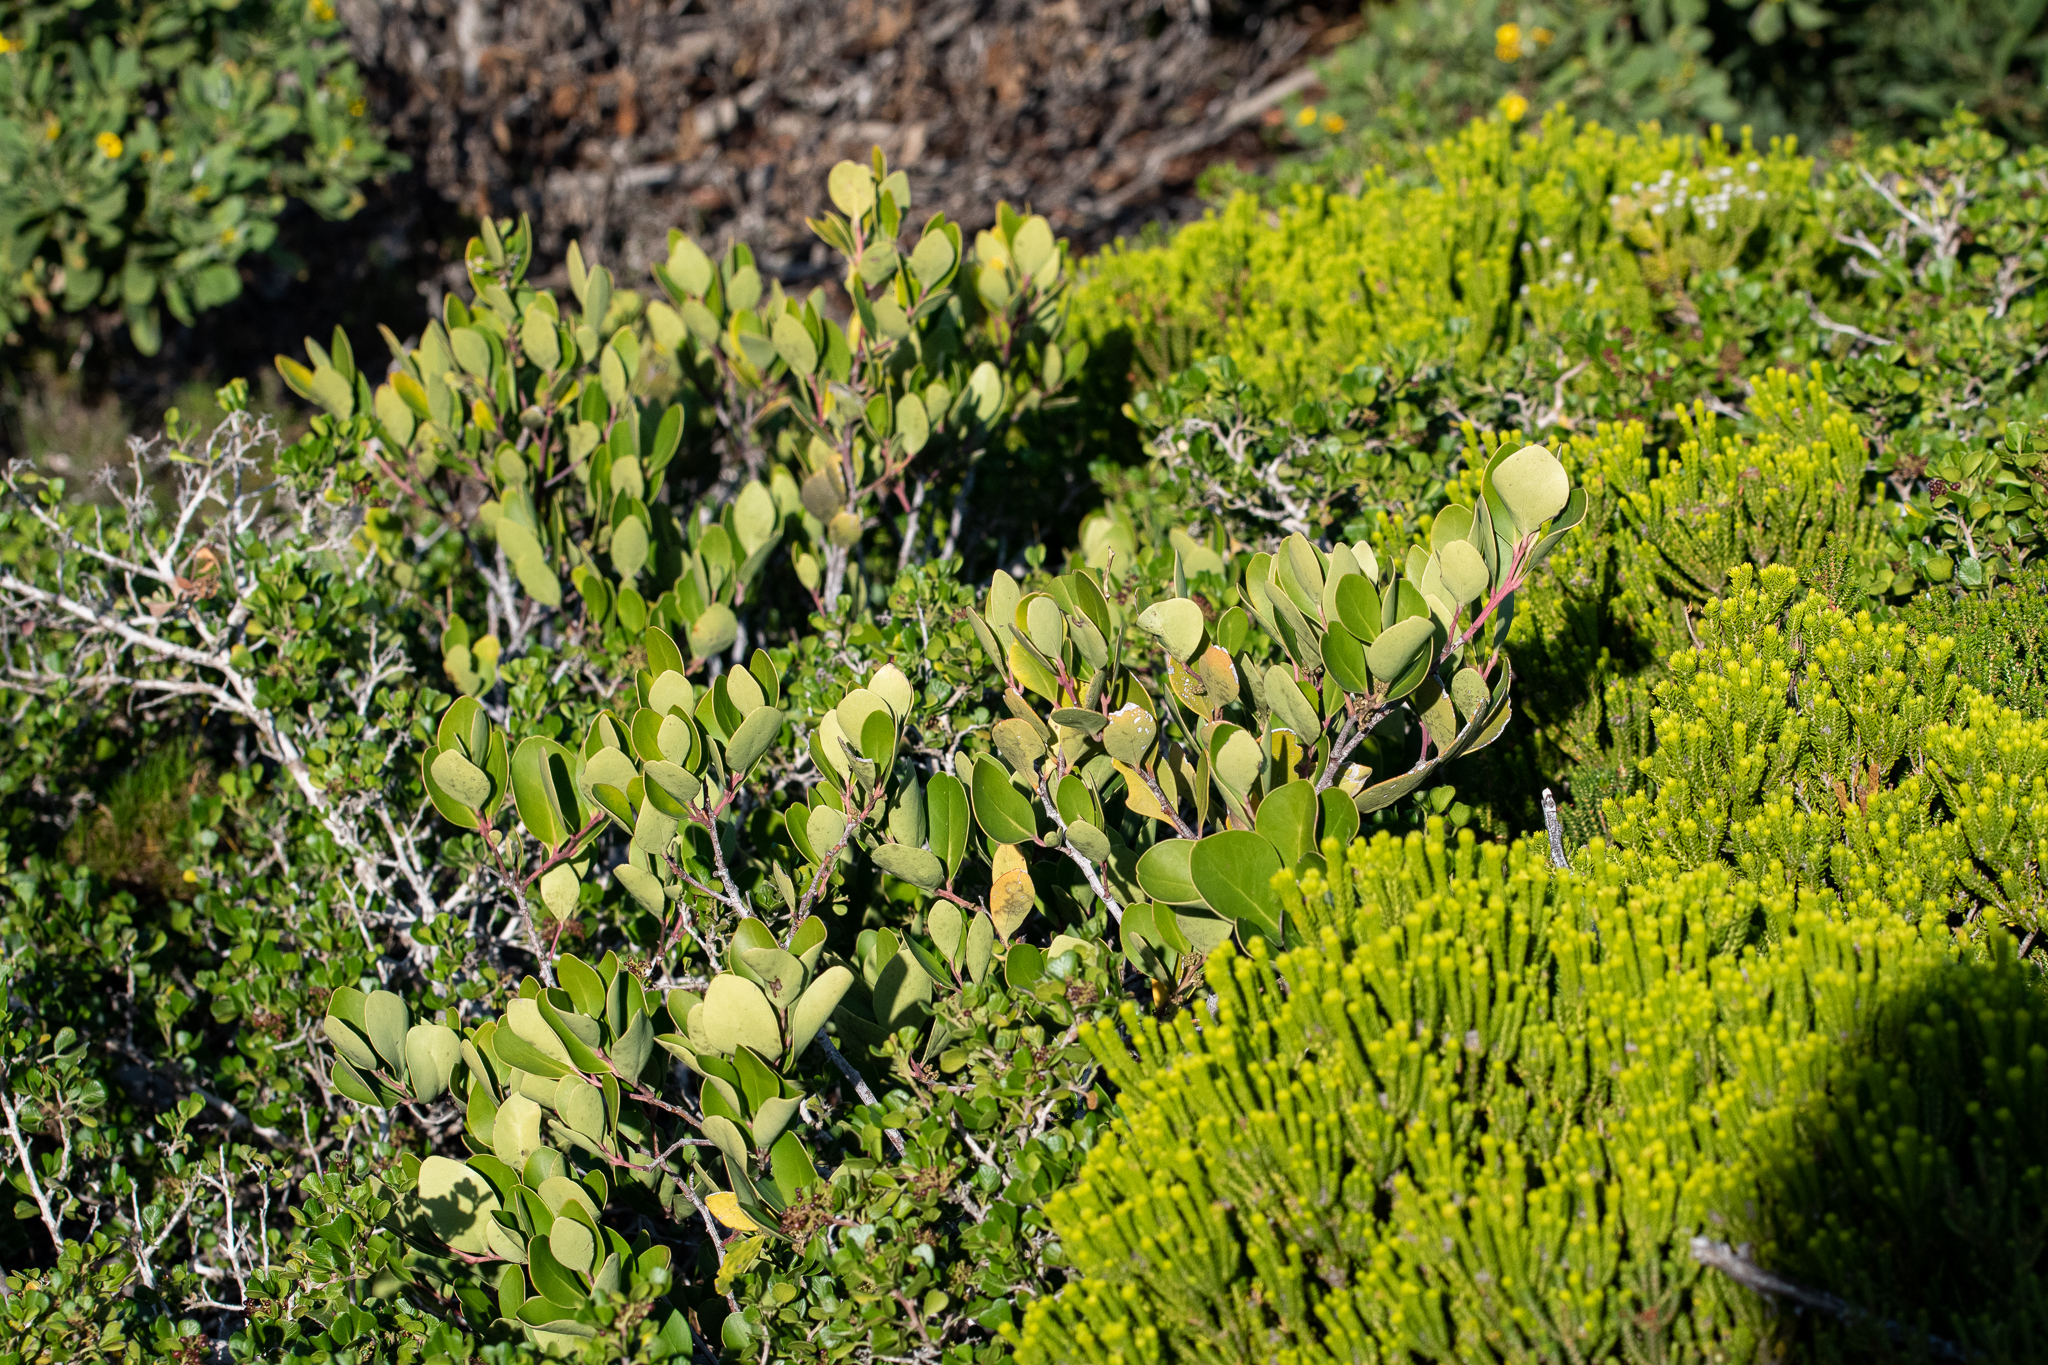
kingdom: Plantae
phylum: Tracheophyta
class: Magnoliopsida
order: Celastrales
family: Celastraceae
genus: Pterocelastrus
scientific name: Pterocelastrus tricuspidatus
